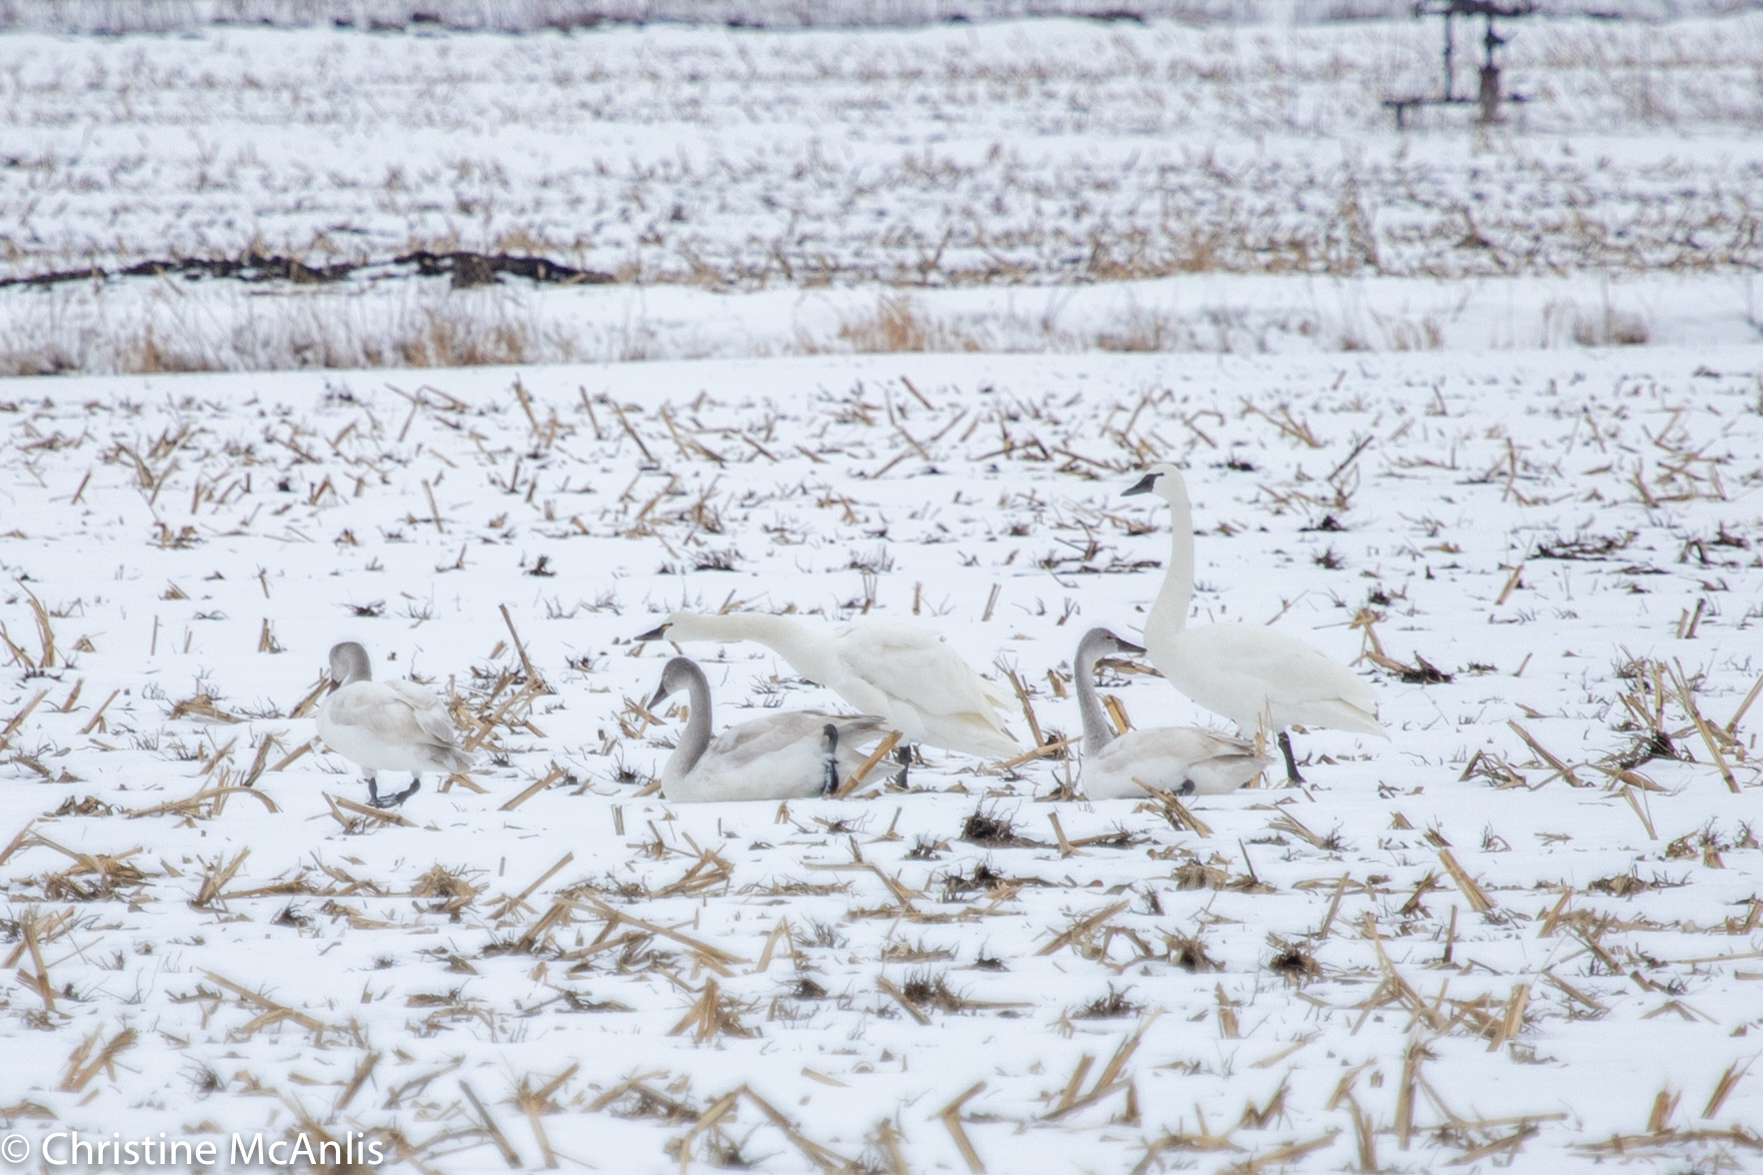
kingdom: Animalia
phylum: Chordata
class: Aves
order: Anseriformes
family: Anatidae
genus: Cygnus
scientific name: Cygnus columbianus
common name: Tundra swan
